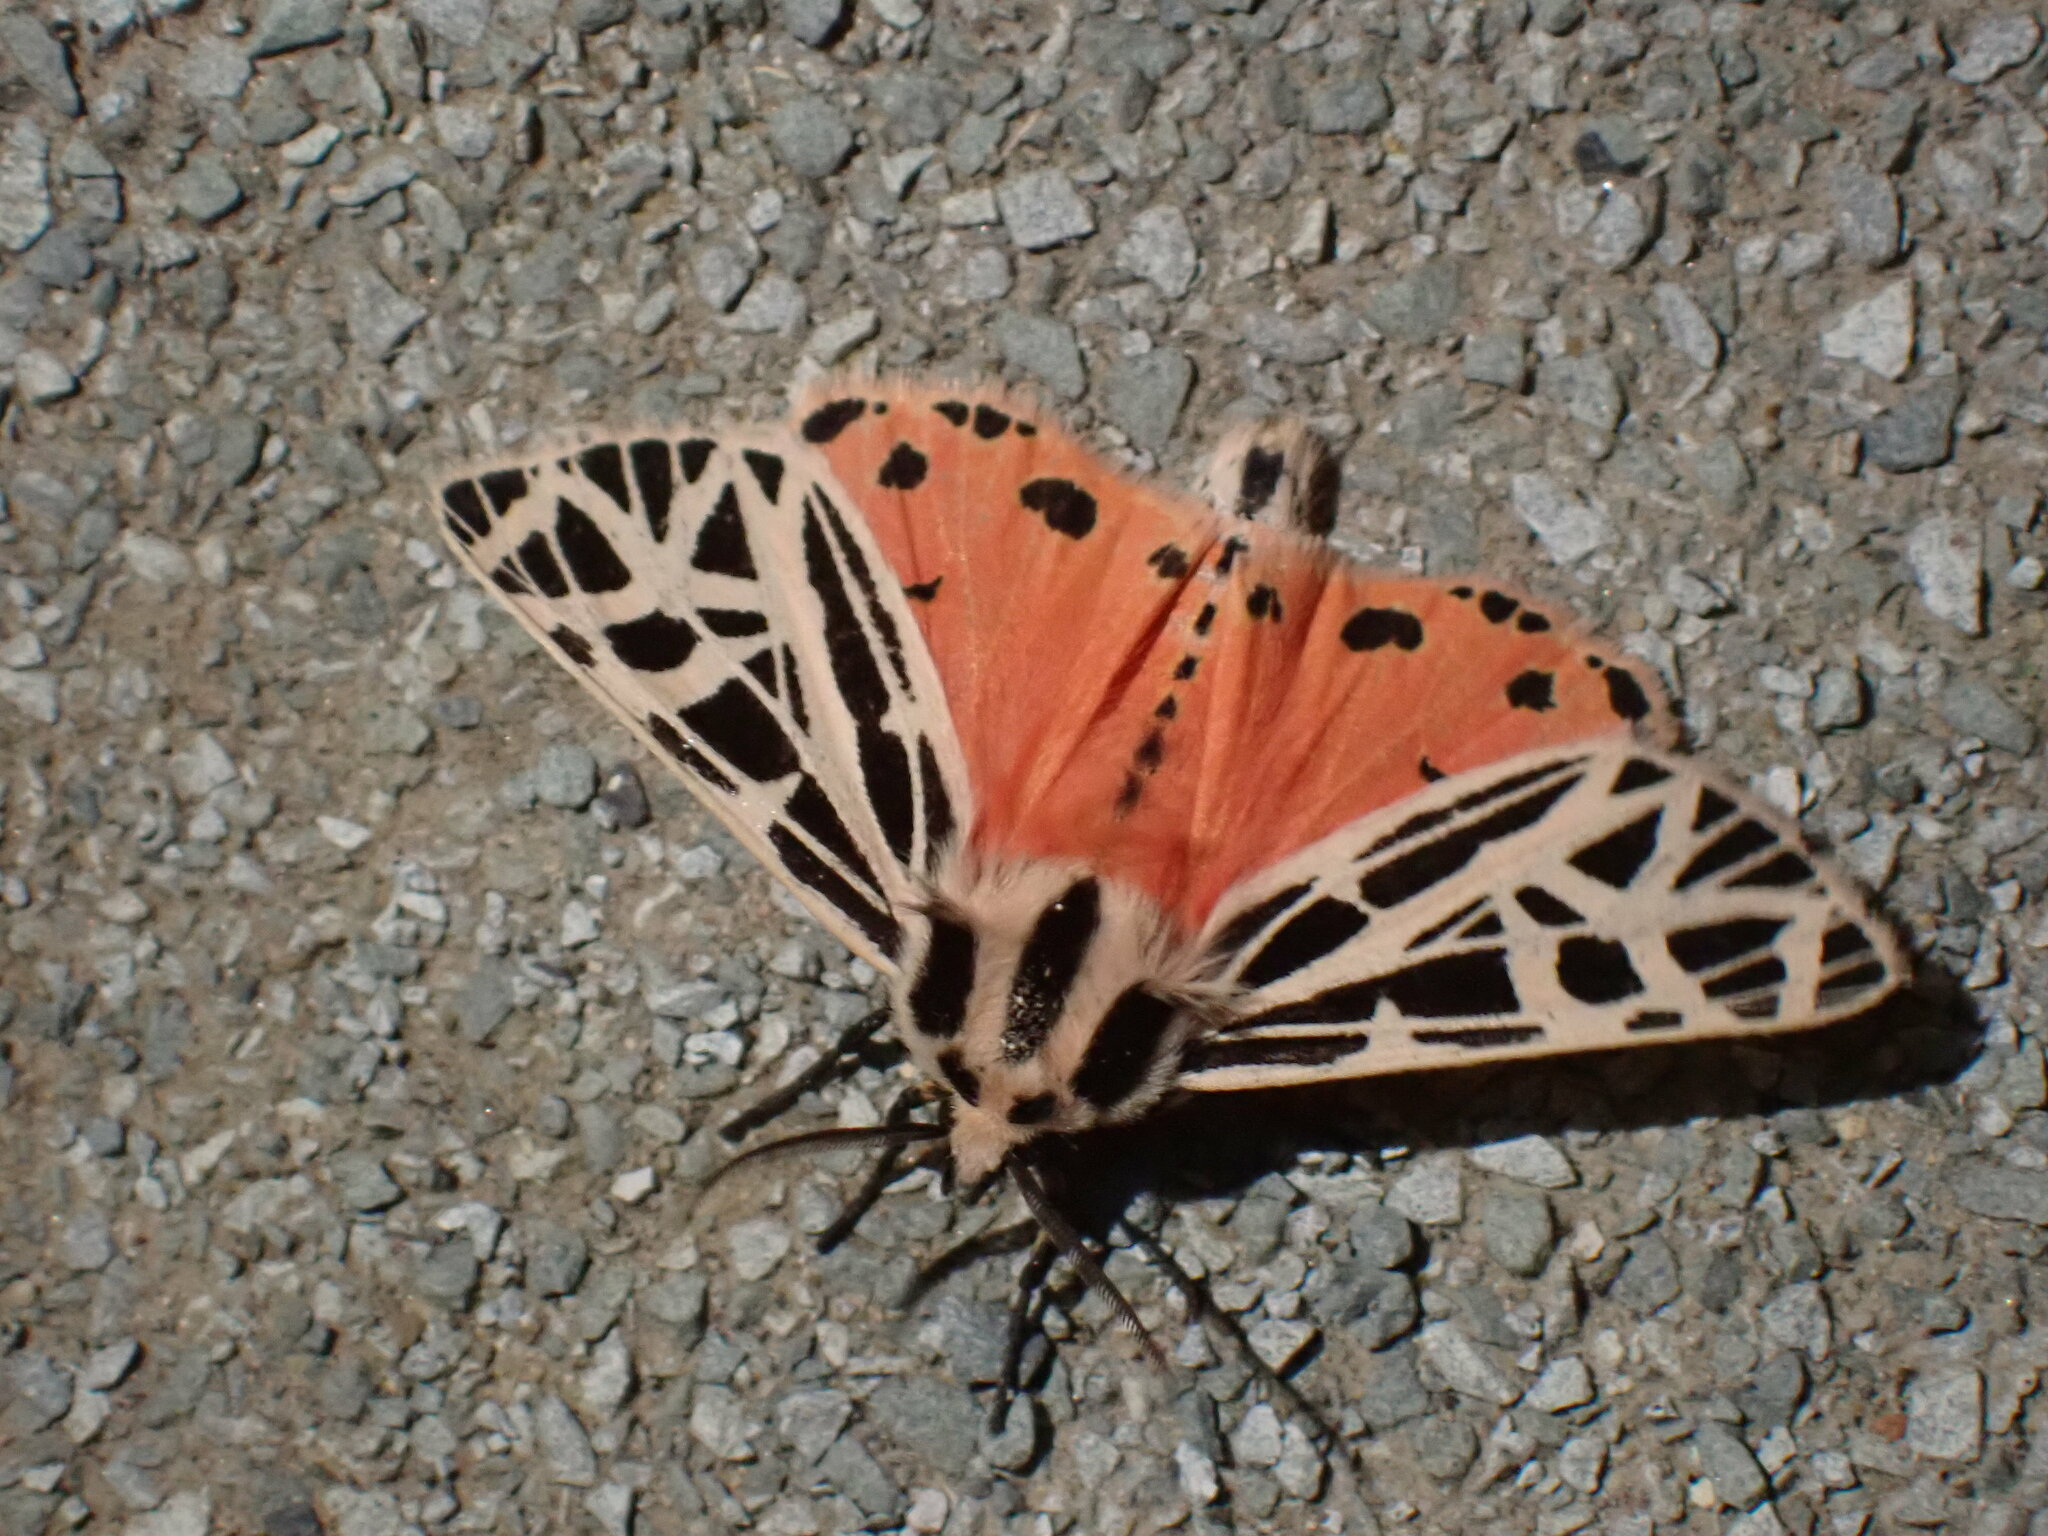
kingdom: Animalia
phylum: Arthropoda
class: Insecta
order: Lepidoptera
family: Erebidae
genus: Grammia
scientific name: Grammia parthenice
